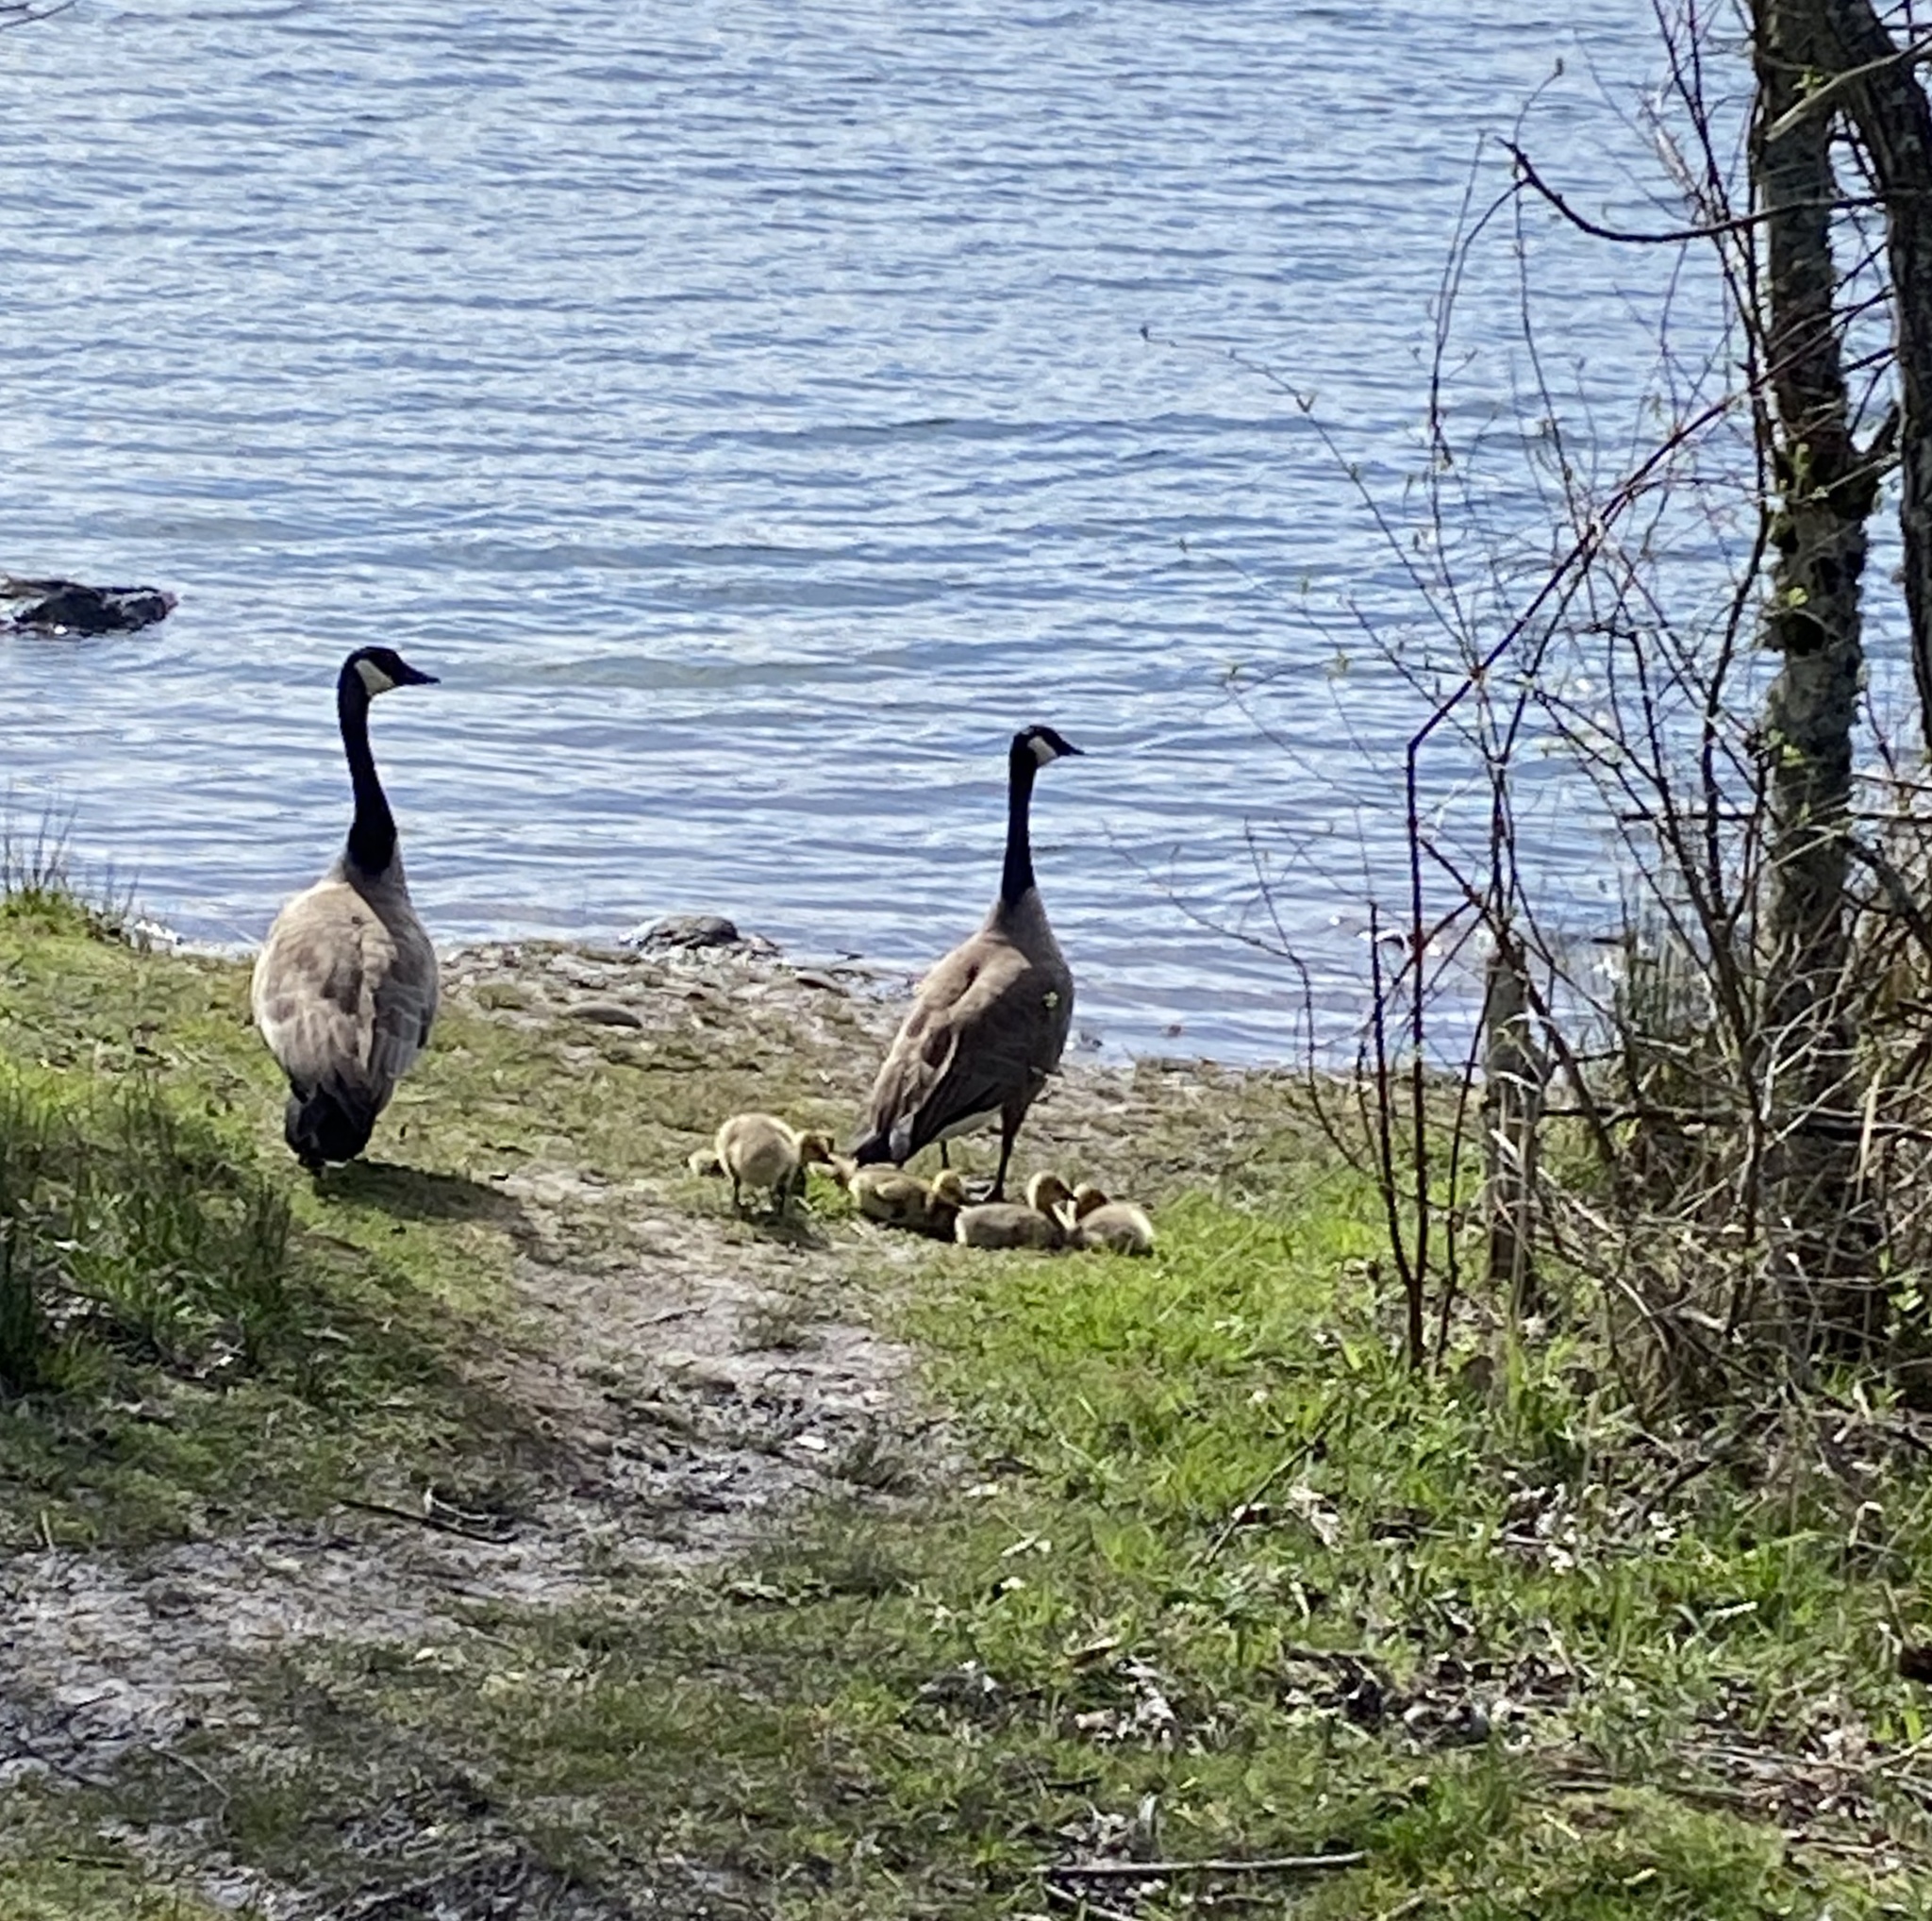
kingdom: Animalia
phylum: Chordata
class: Aves
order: Anseriformes
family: Anatidae
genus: Branta
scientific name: Branta canadensis
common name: Canada goose
